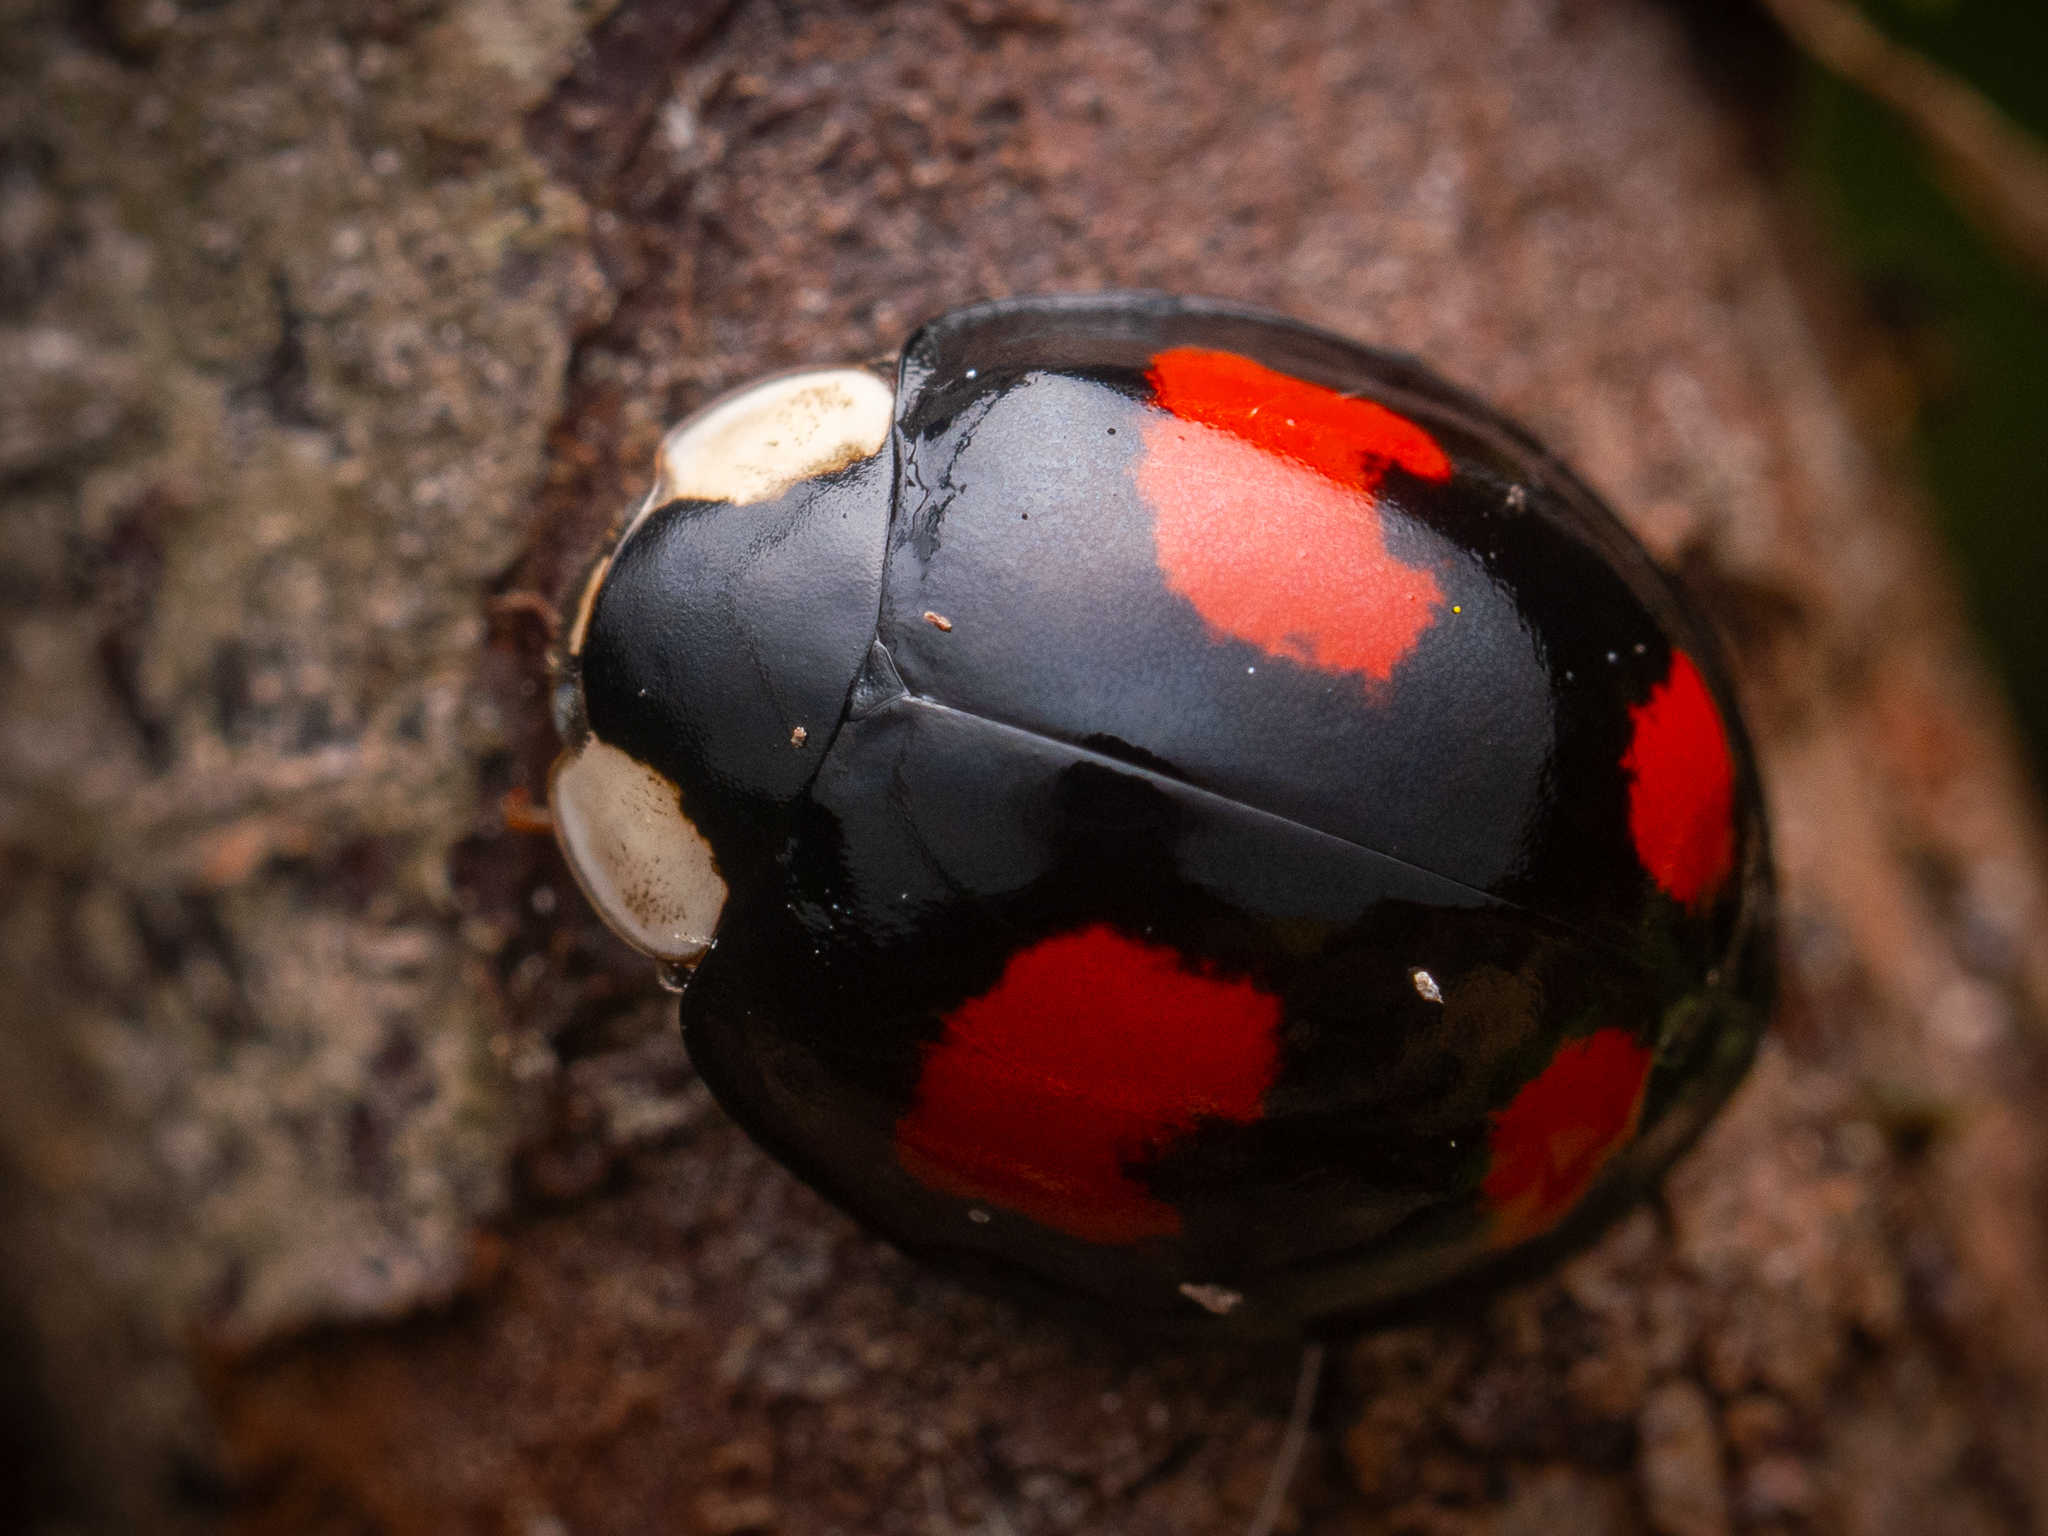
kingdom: Animalia
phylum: Arthropoda
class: Insecta
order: Coleoptera
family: Coccinellidae
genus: Harmonia
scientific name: Harmonia axyridis
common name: Harlequin ladybird
